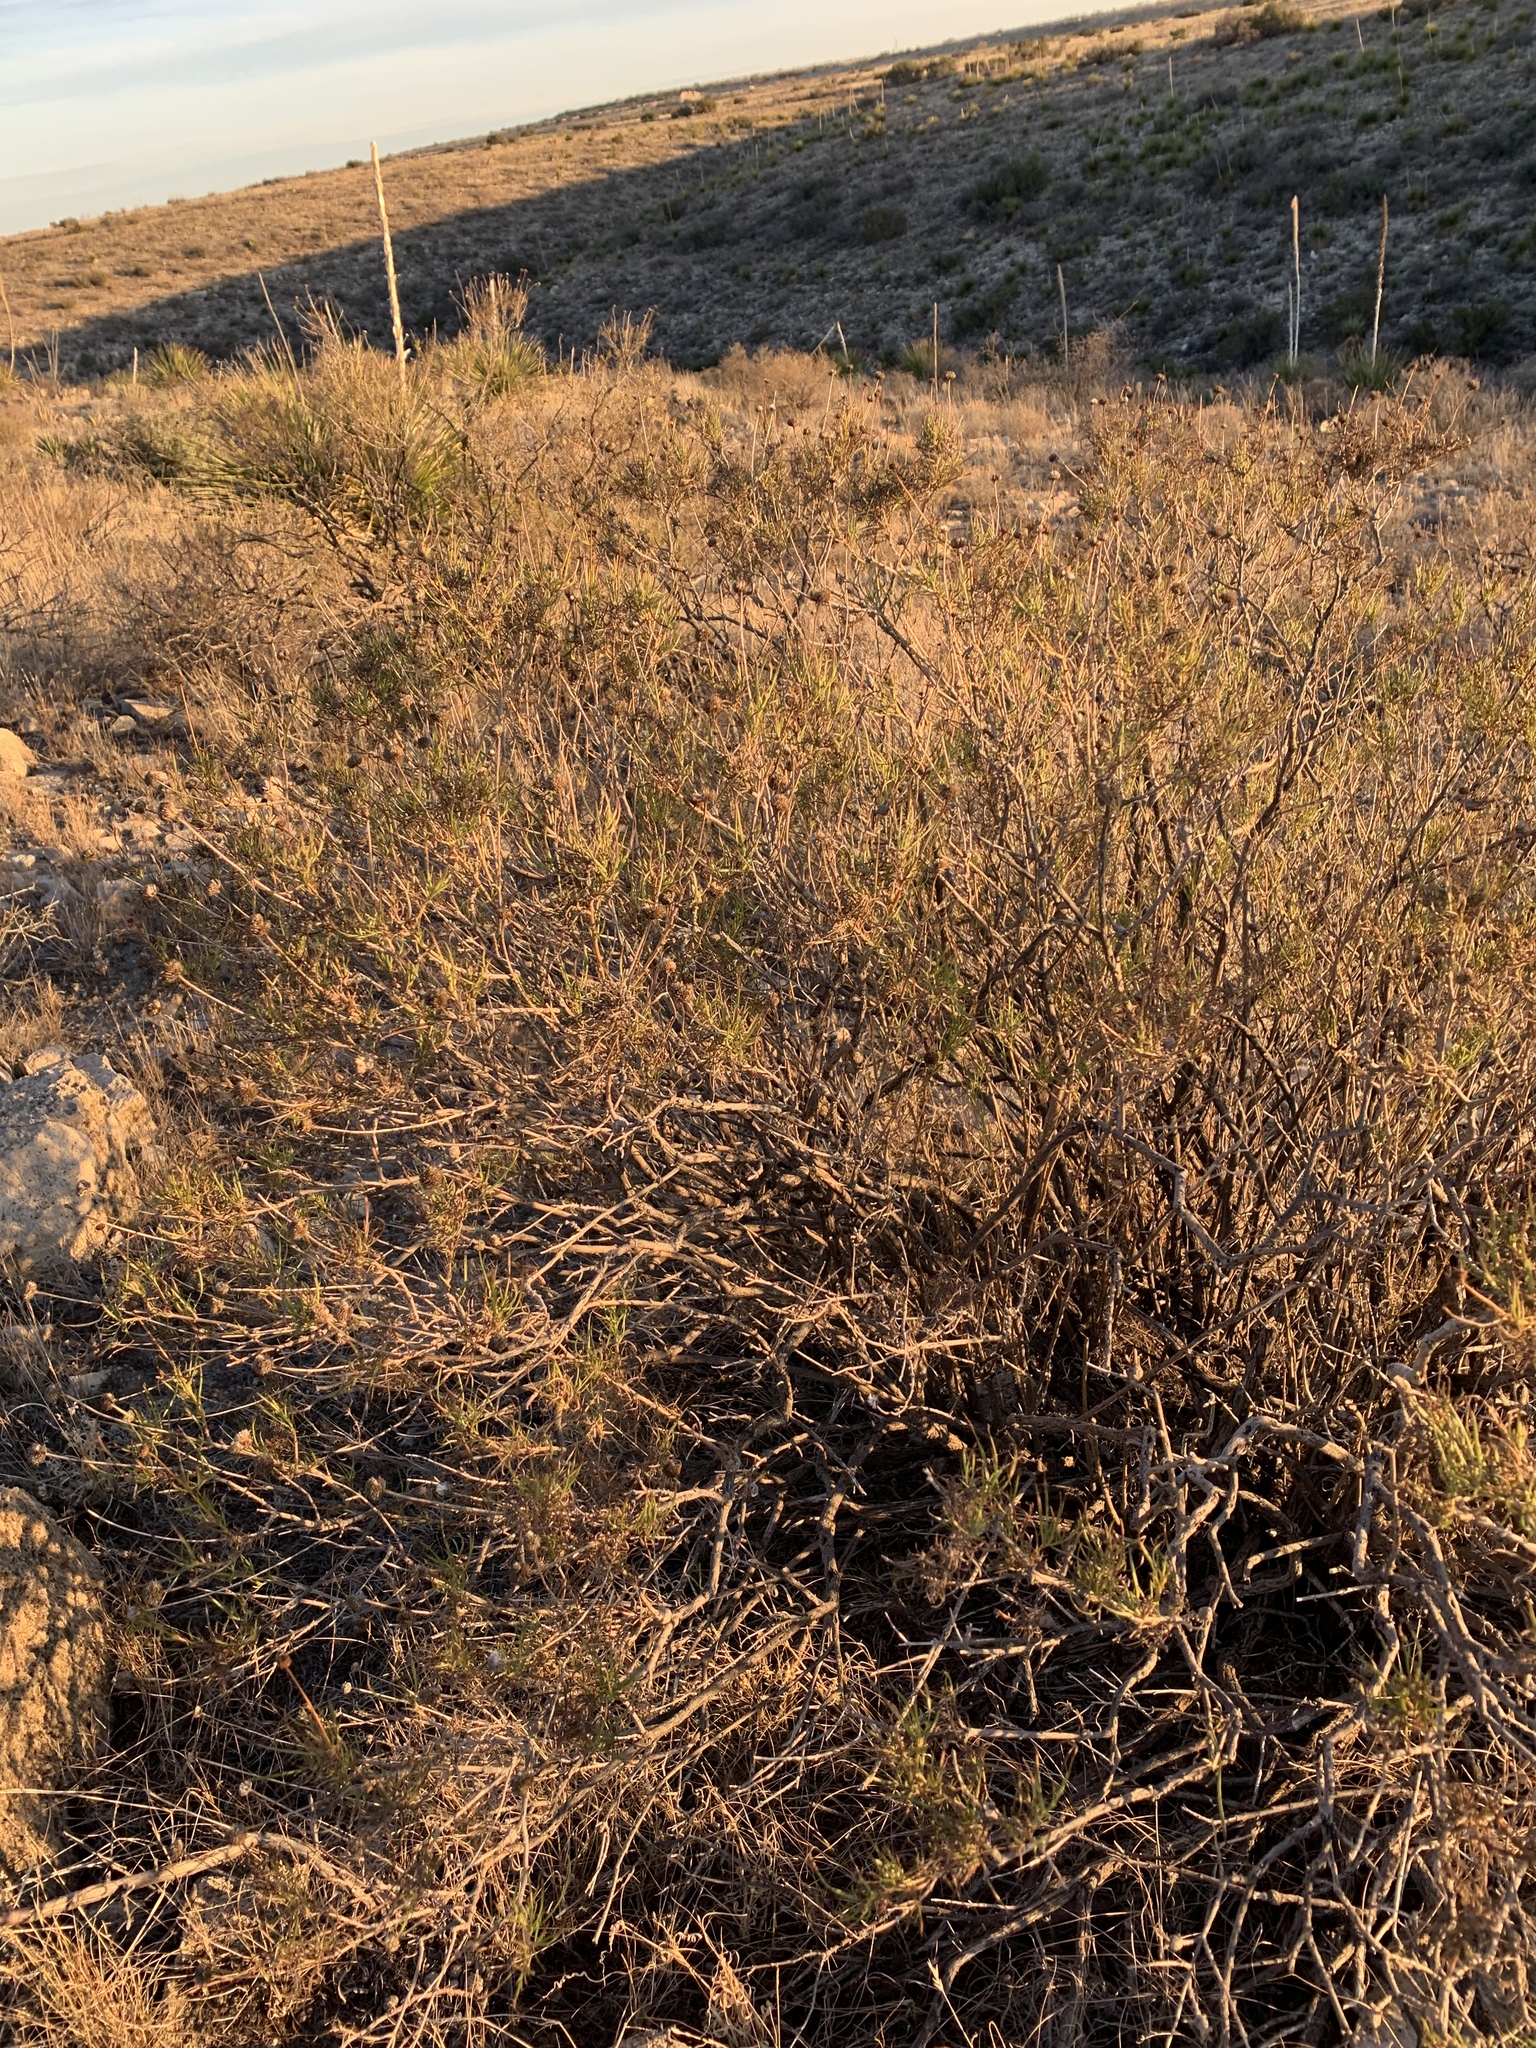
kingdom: Plantae
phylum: Tracheophyta
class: Magnoliopsida
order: Rosales
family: Rosaceae
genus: Fallugia
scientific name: Fallugia paradoxa
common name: Apache-plume
